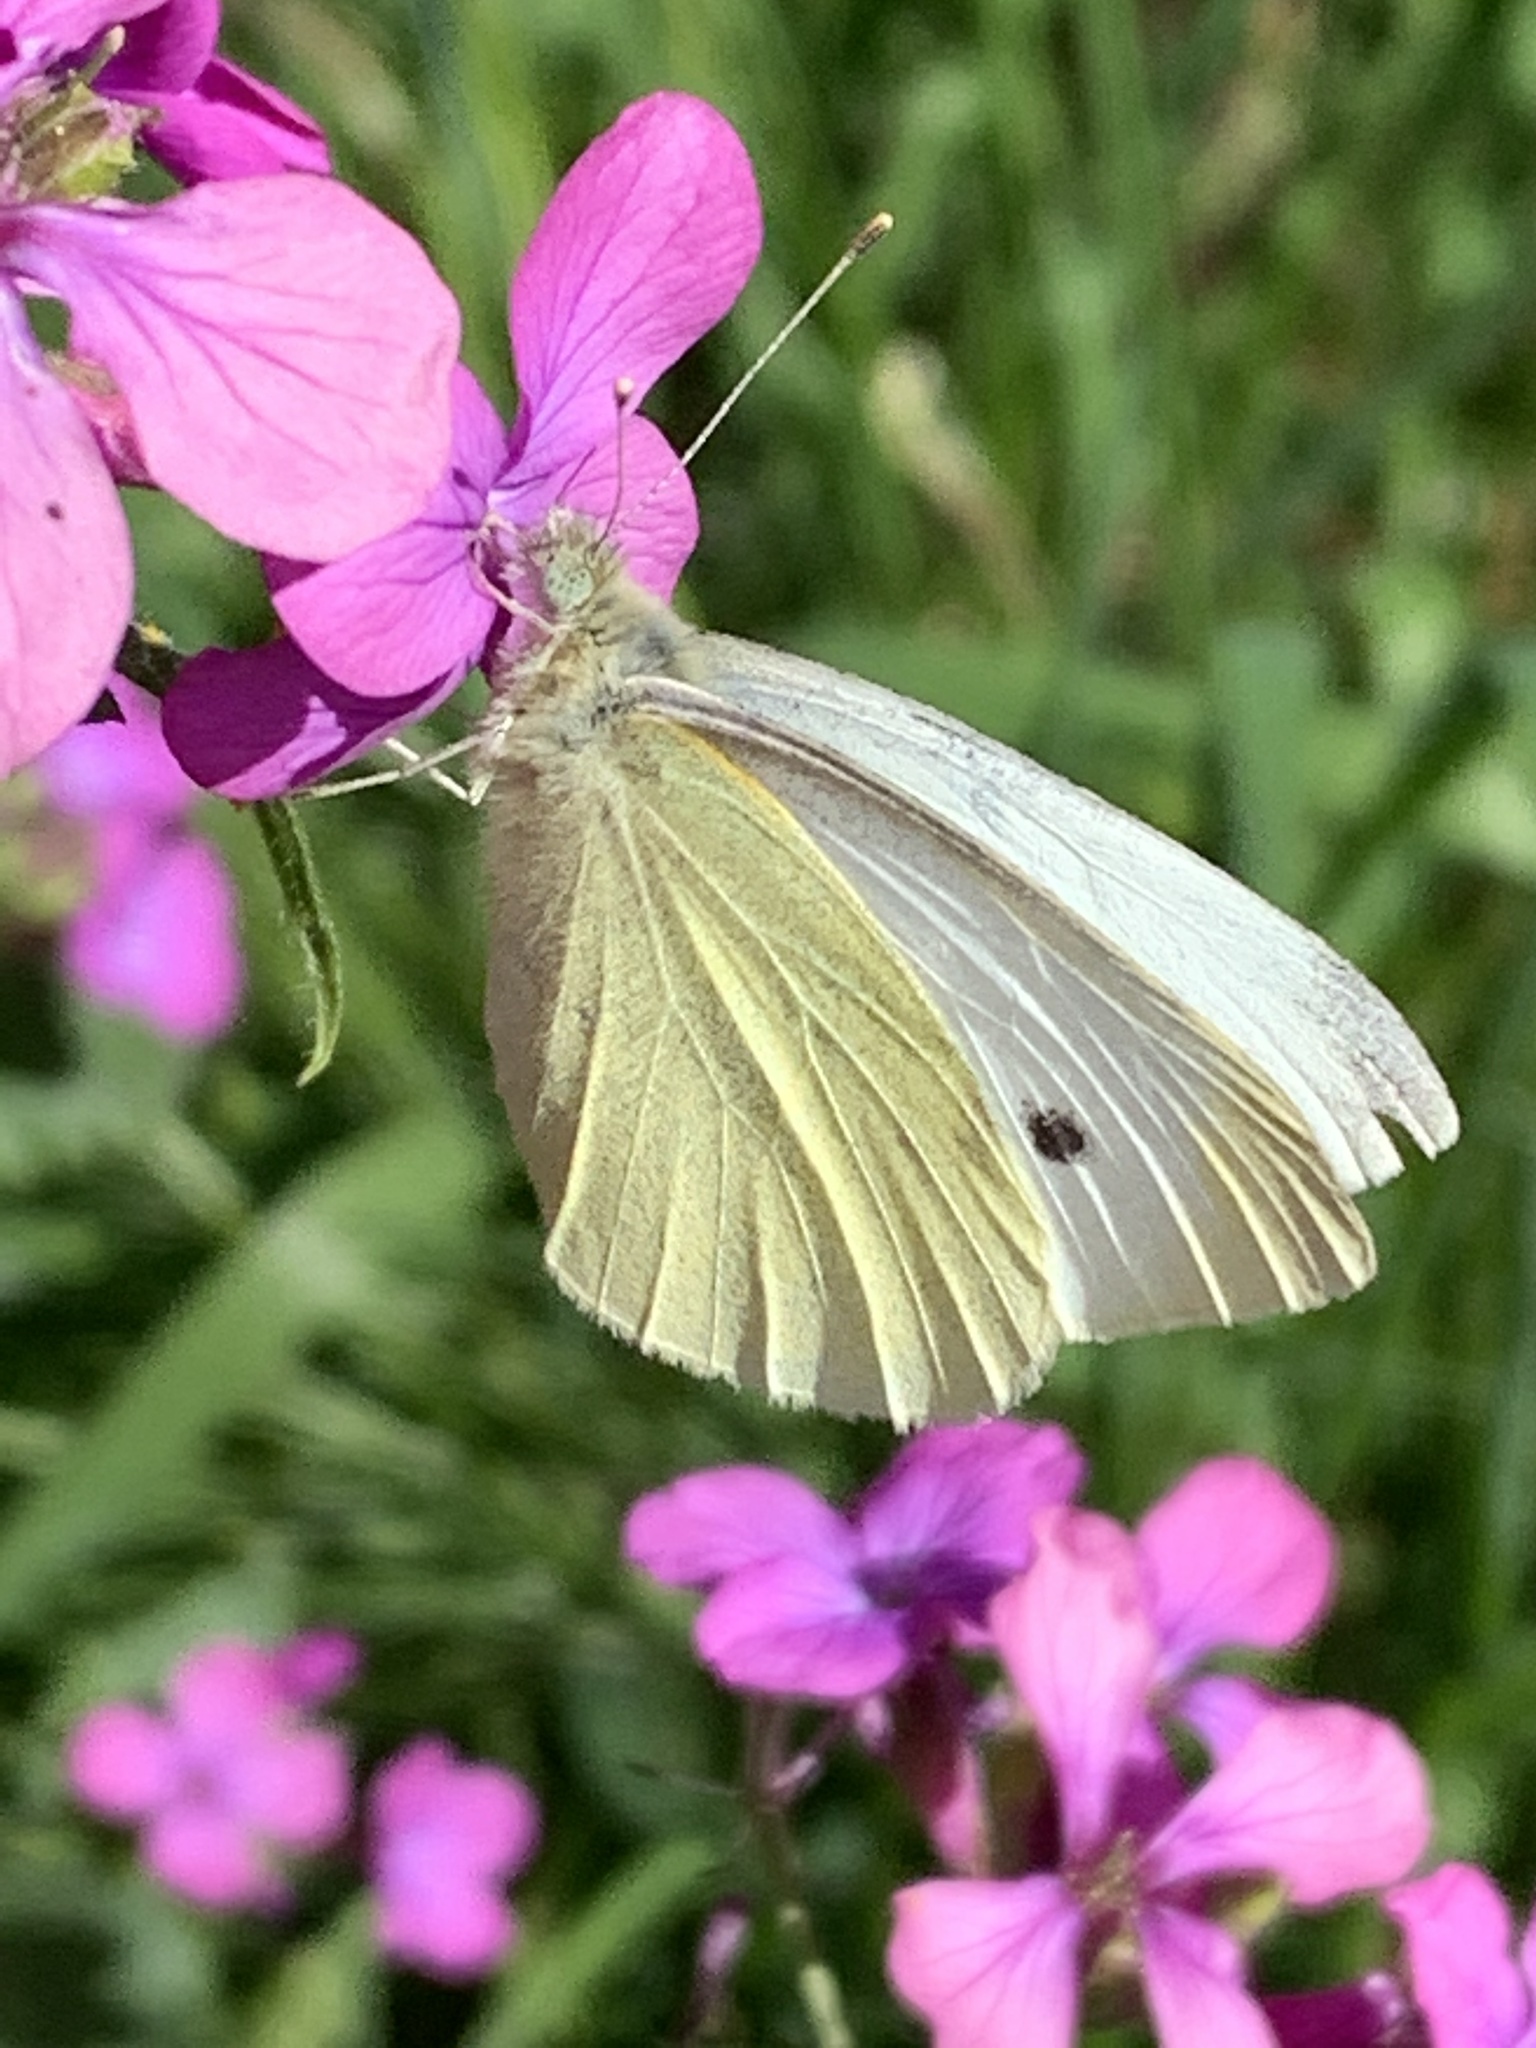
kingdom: Animalia
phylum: Arthropoda
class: Insecta
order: Lepidoptera
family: Pieridae
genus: Pieris
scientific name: Pieris rapae
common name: Small white
